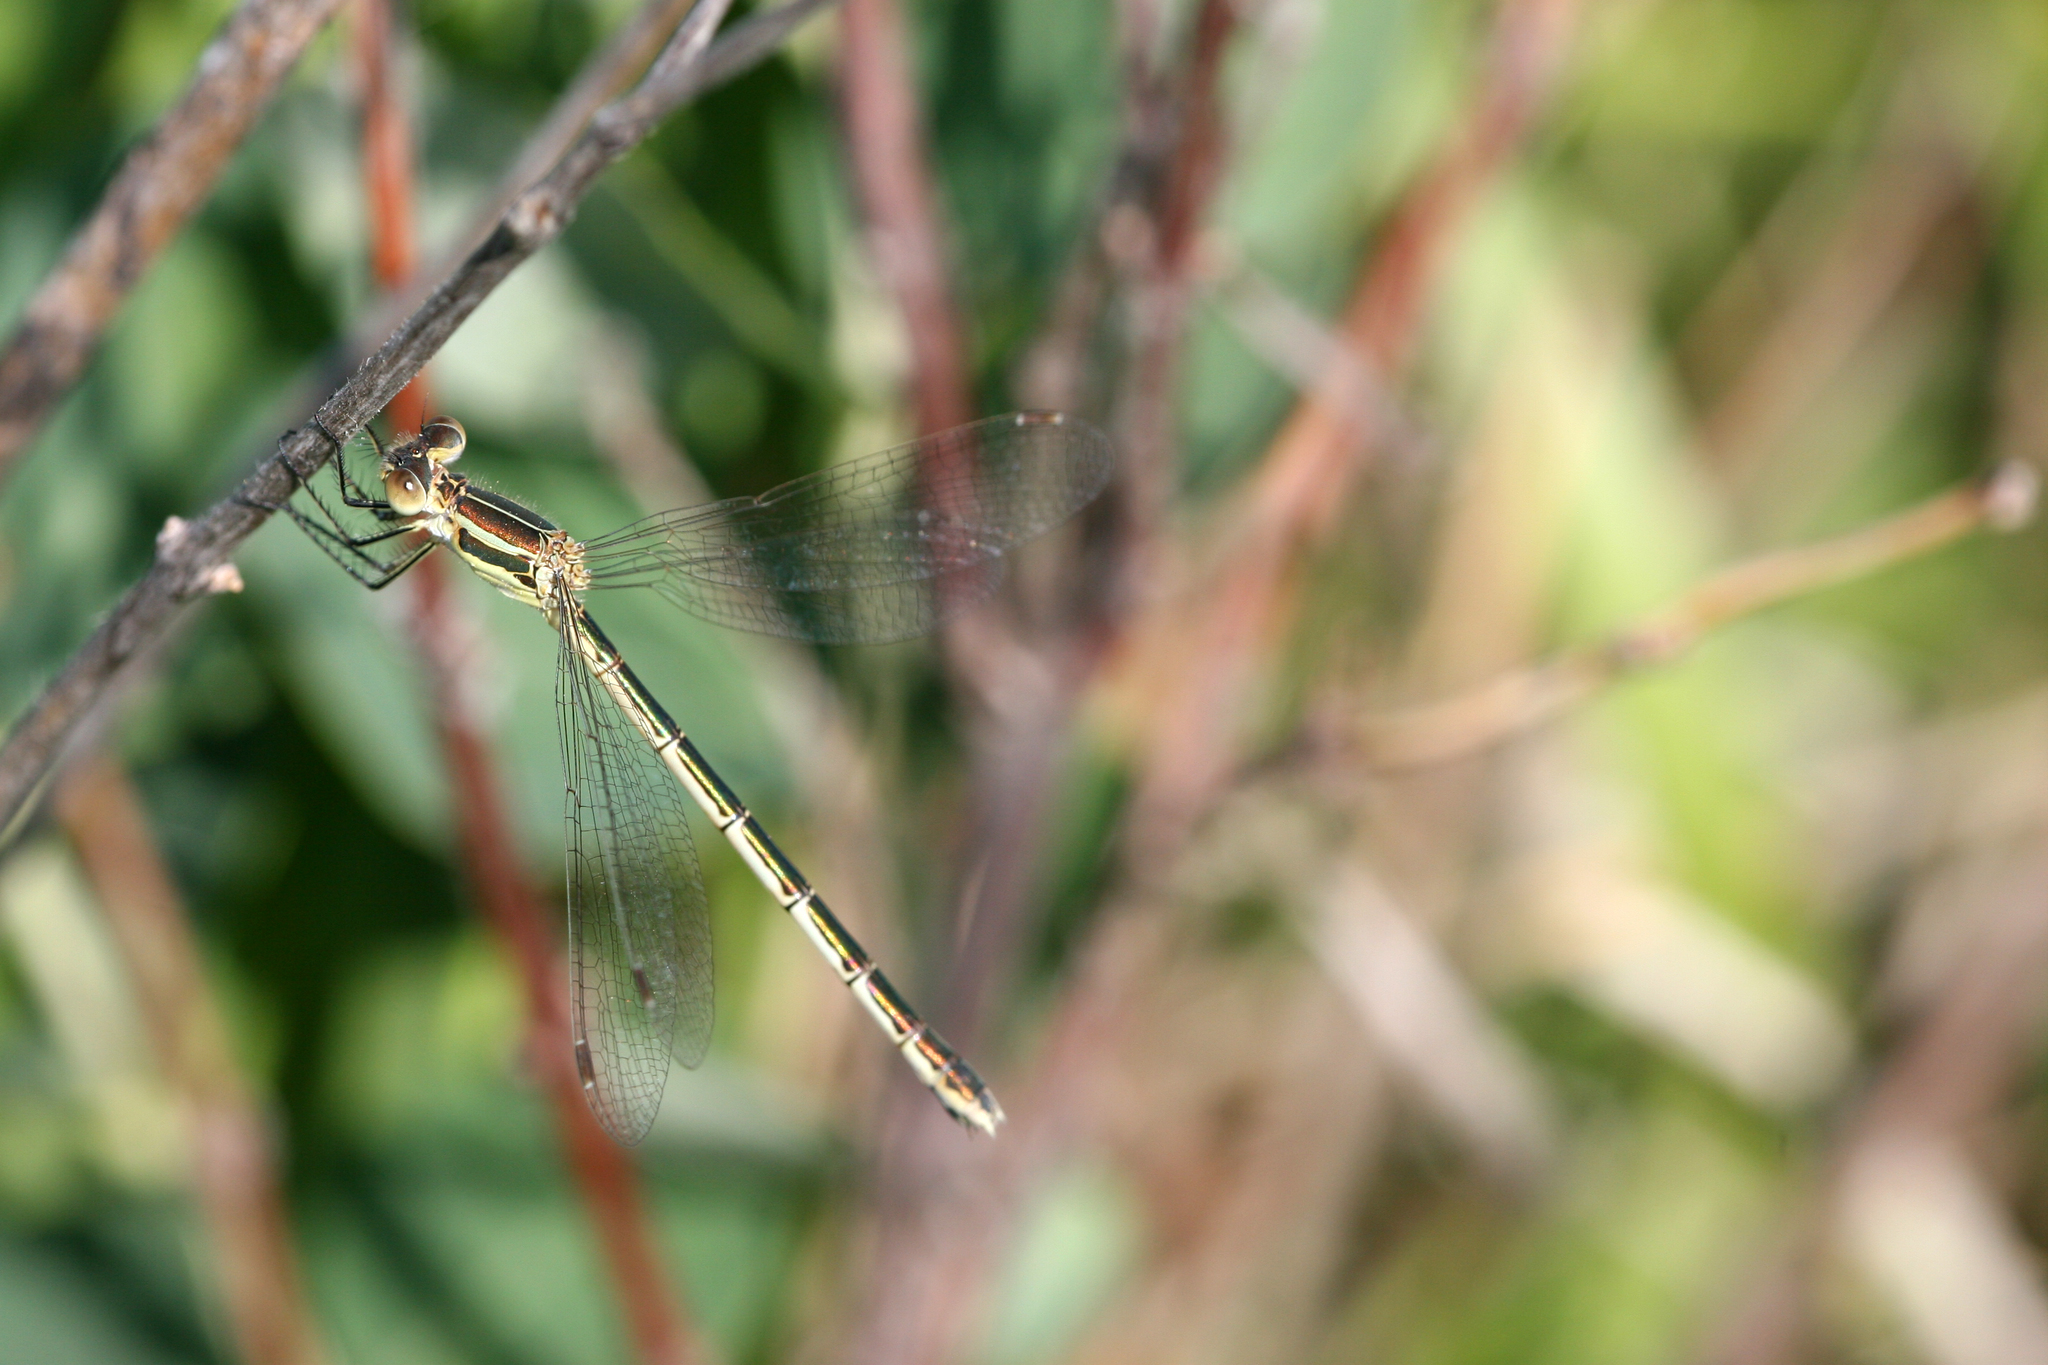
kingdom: Animalia
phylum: Arthropoda
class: Insecta
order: Odonata
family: Lestidae
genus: Lestes
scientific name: Lestes unguiculatus
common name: Lyre-tipped spreadwing
